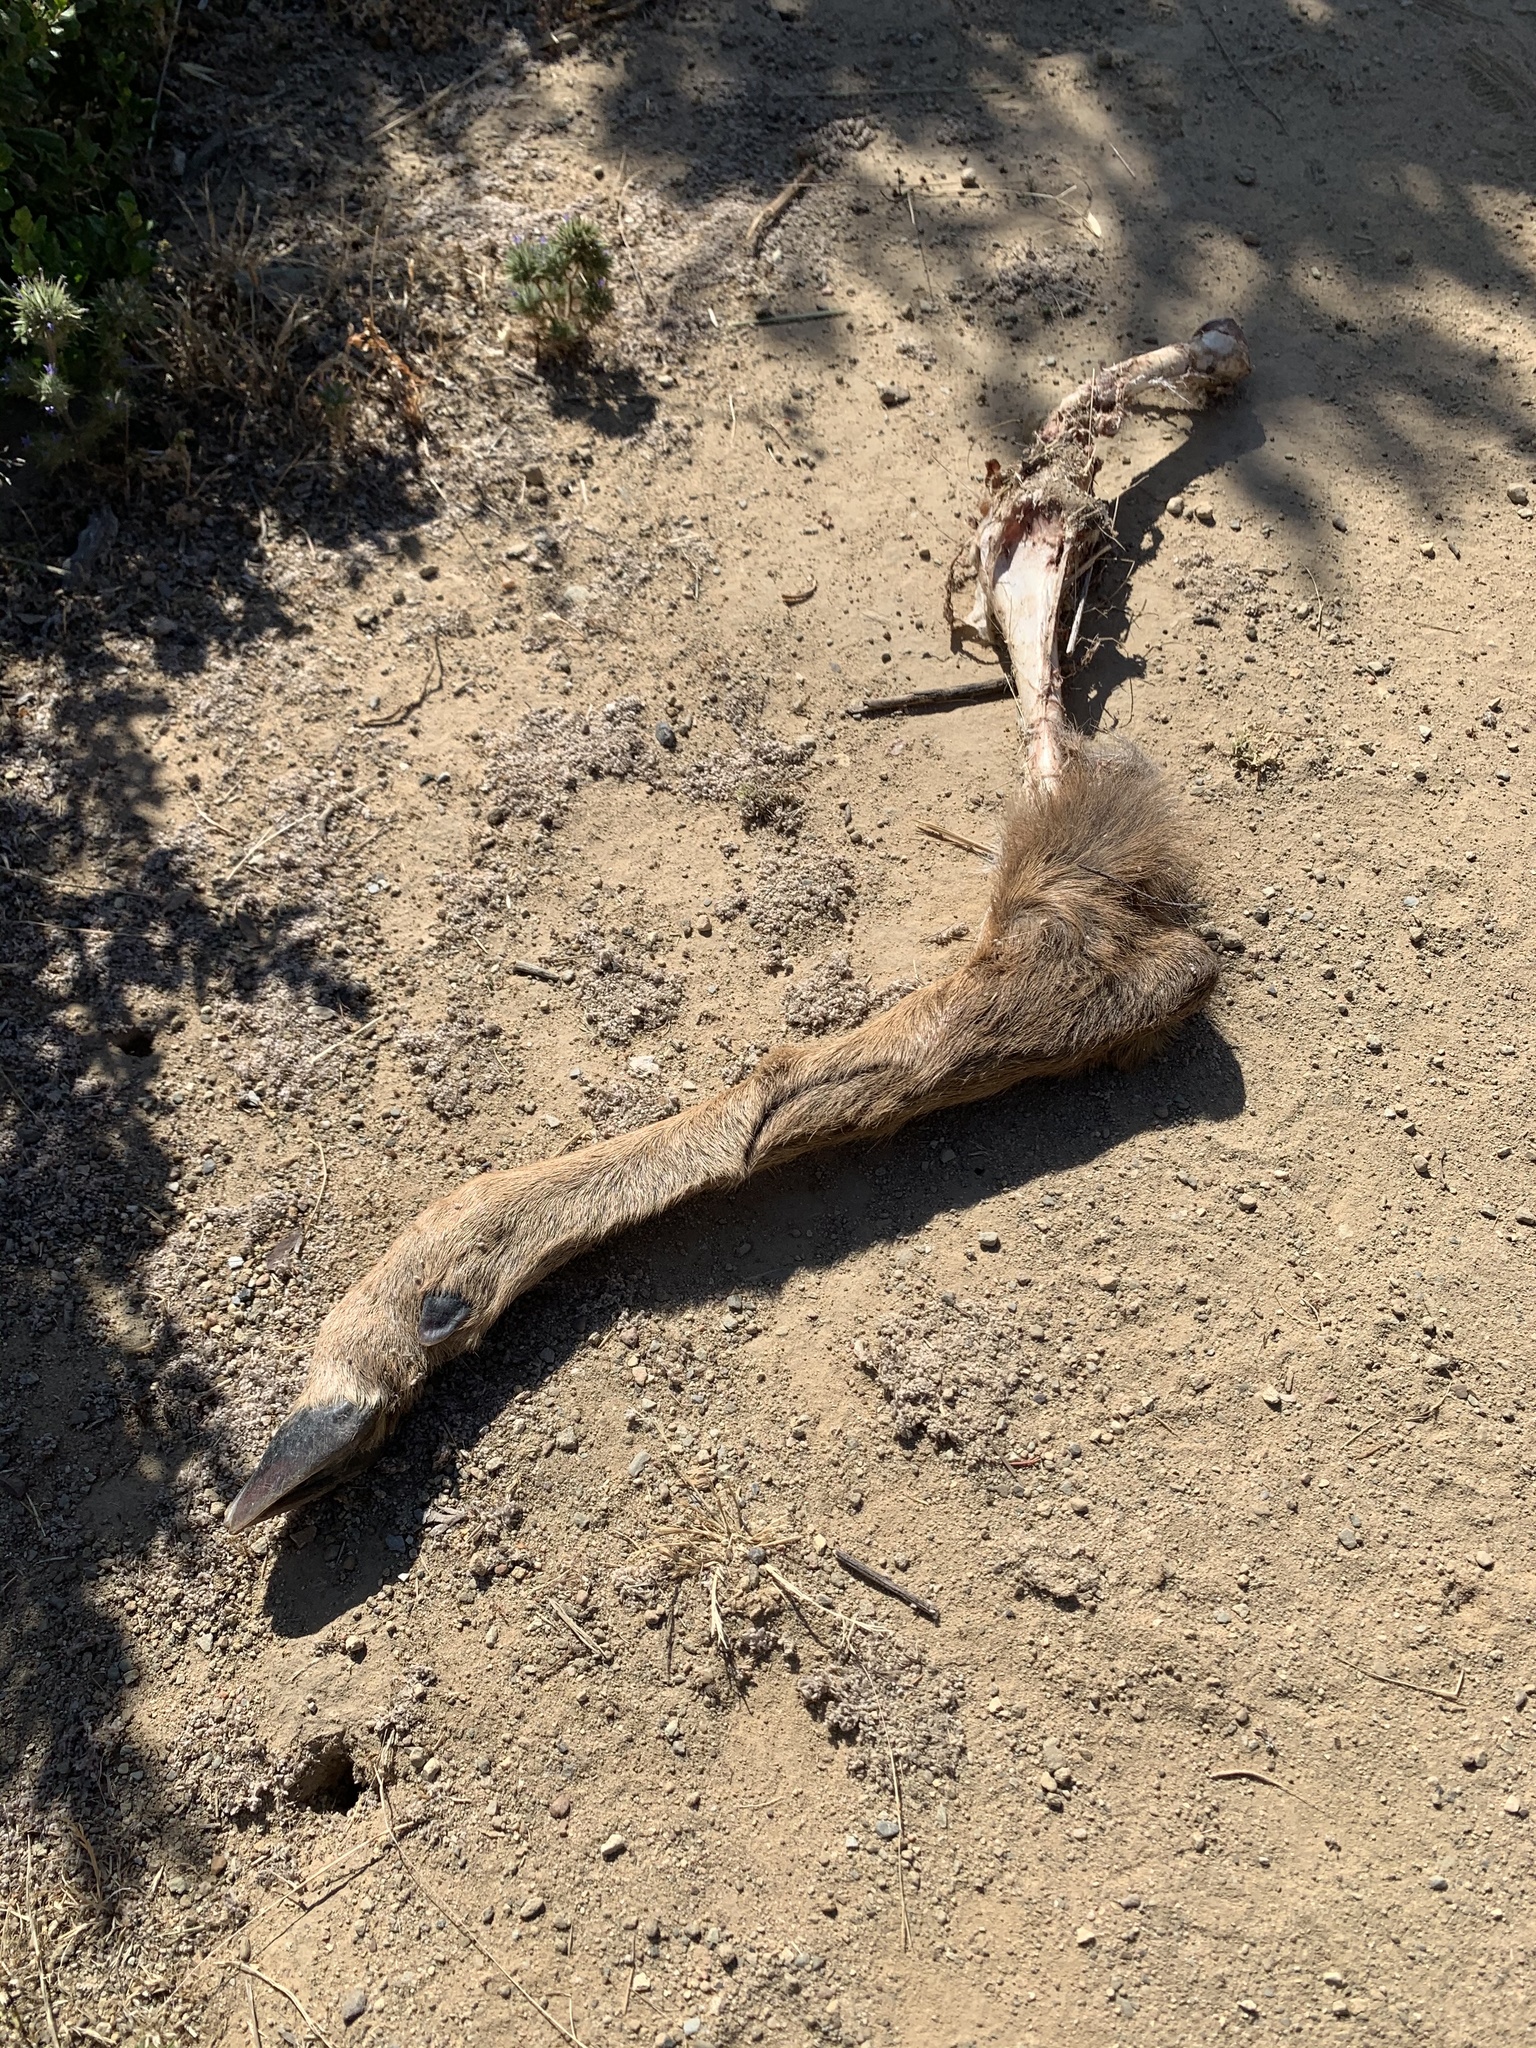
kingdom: Animalia
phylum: Chordata
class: Mammalia
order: Artiodactyla
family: Cervidae
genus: Odocoileus
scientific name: Odocoileus hemionus
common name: Mule deer
